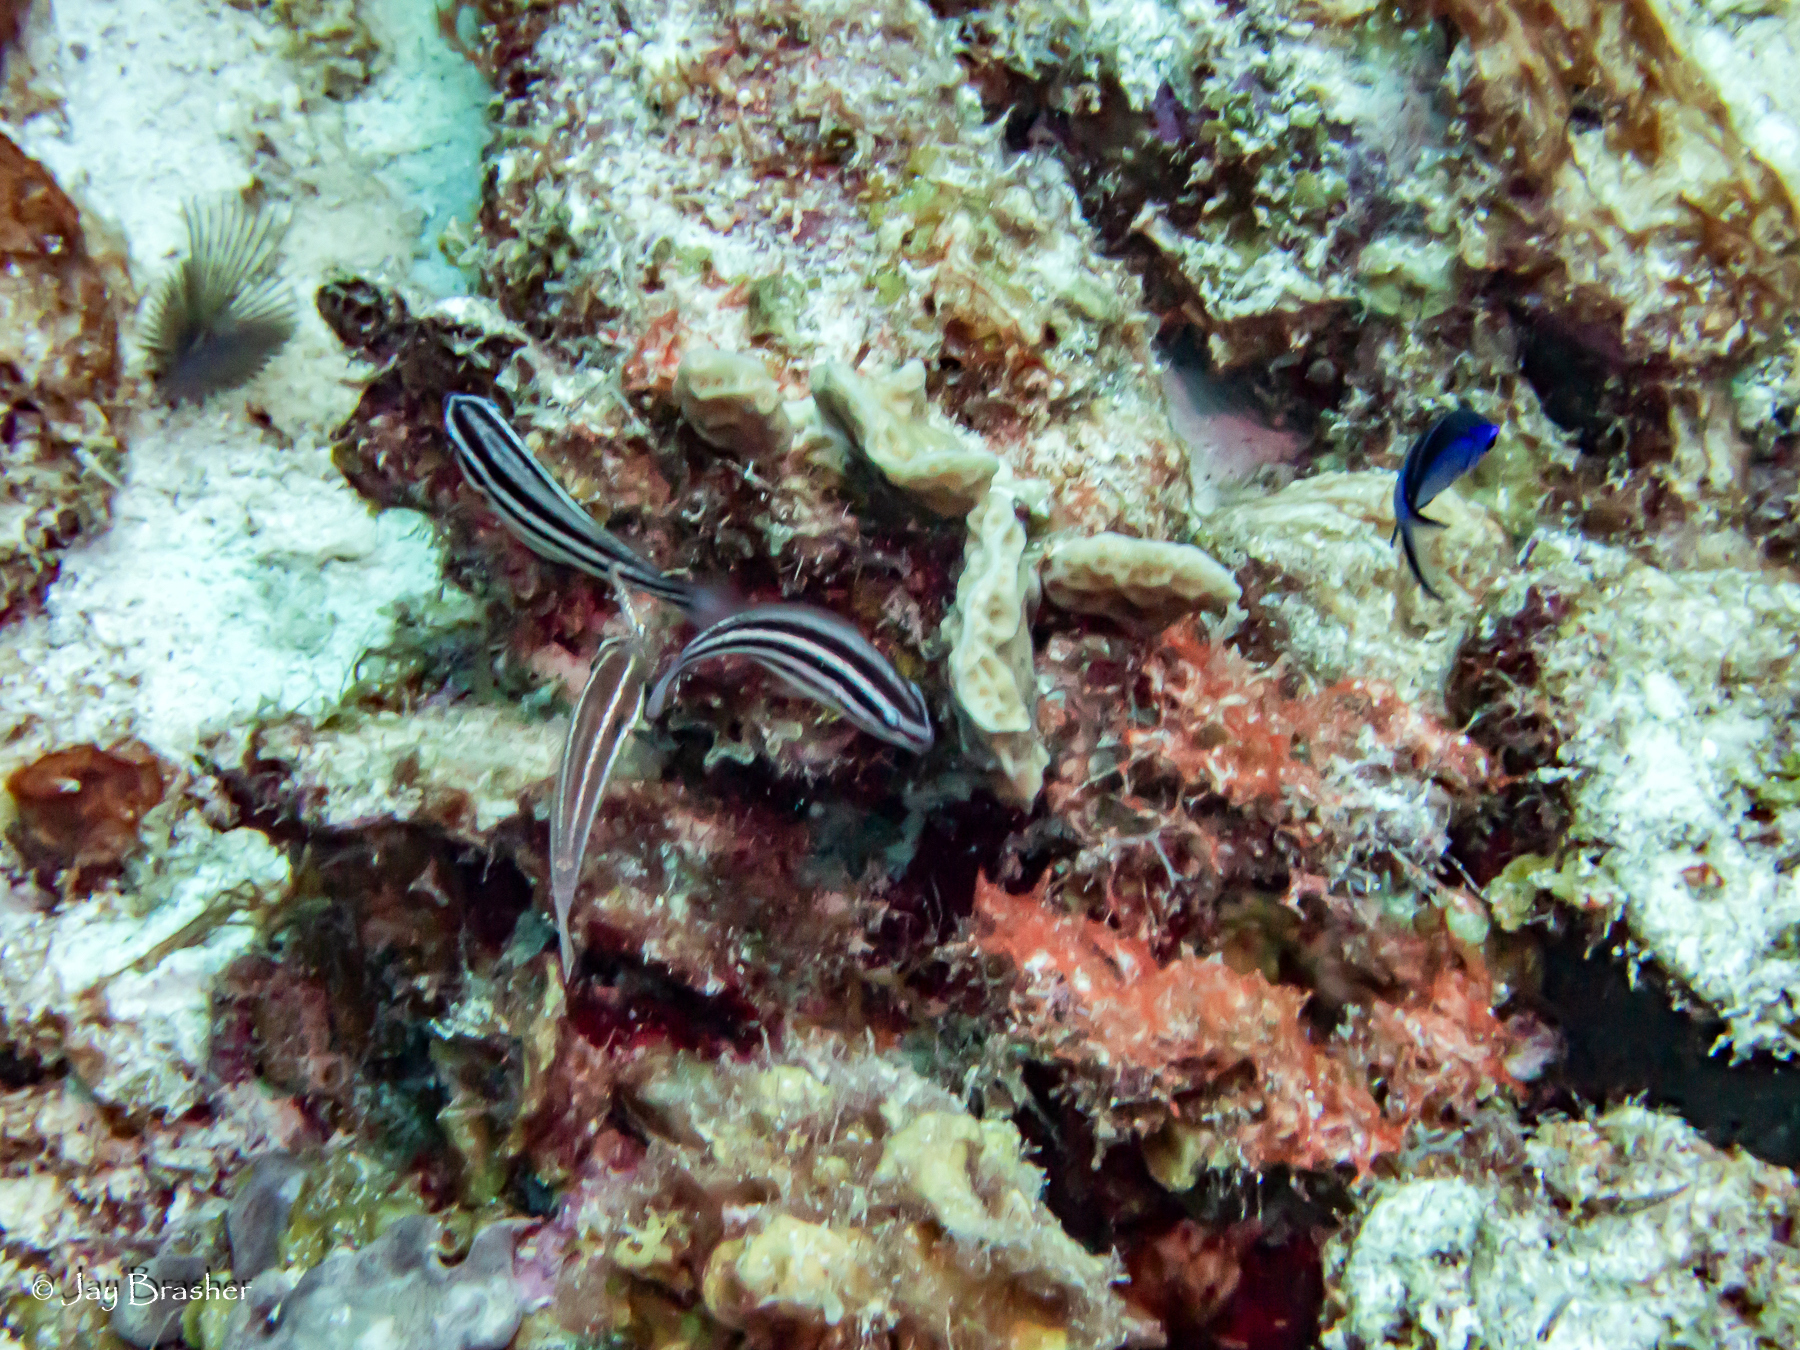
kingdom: Animalia
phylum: Chordata
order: Perciformes
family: Scaridae
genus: Scarus
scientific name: Scarus taeniopterus
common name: Princess parrotfish
